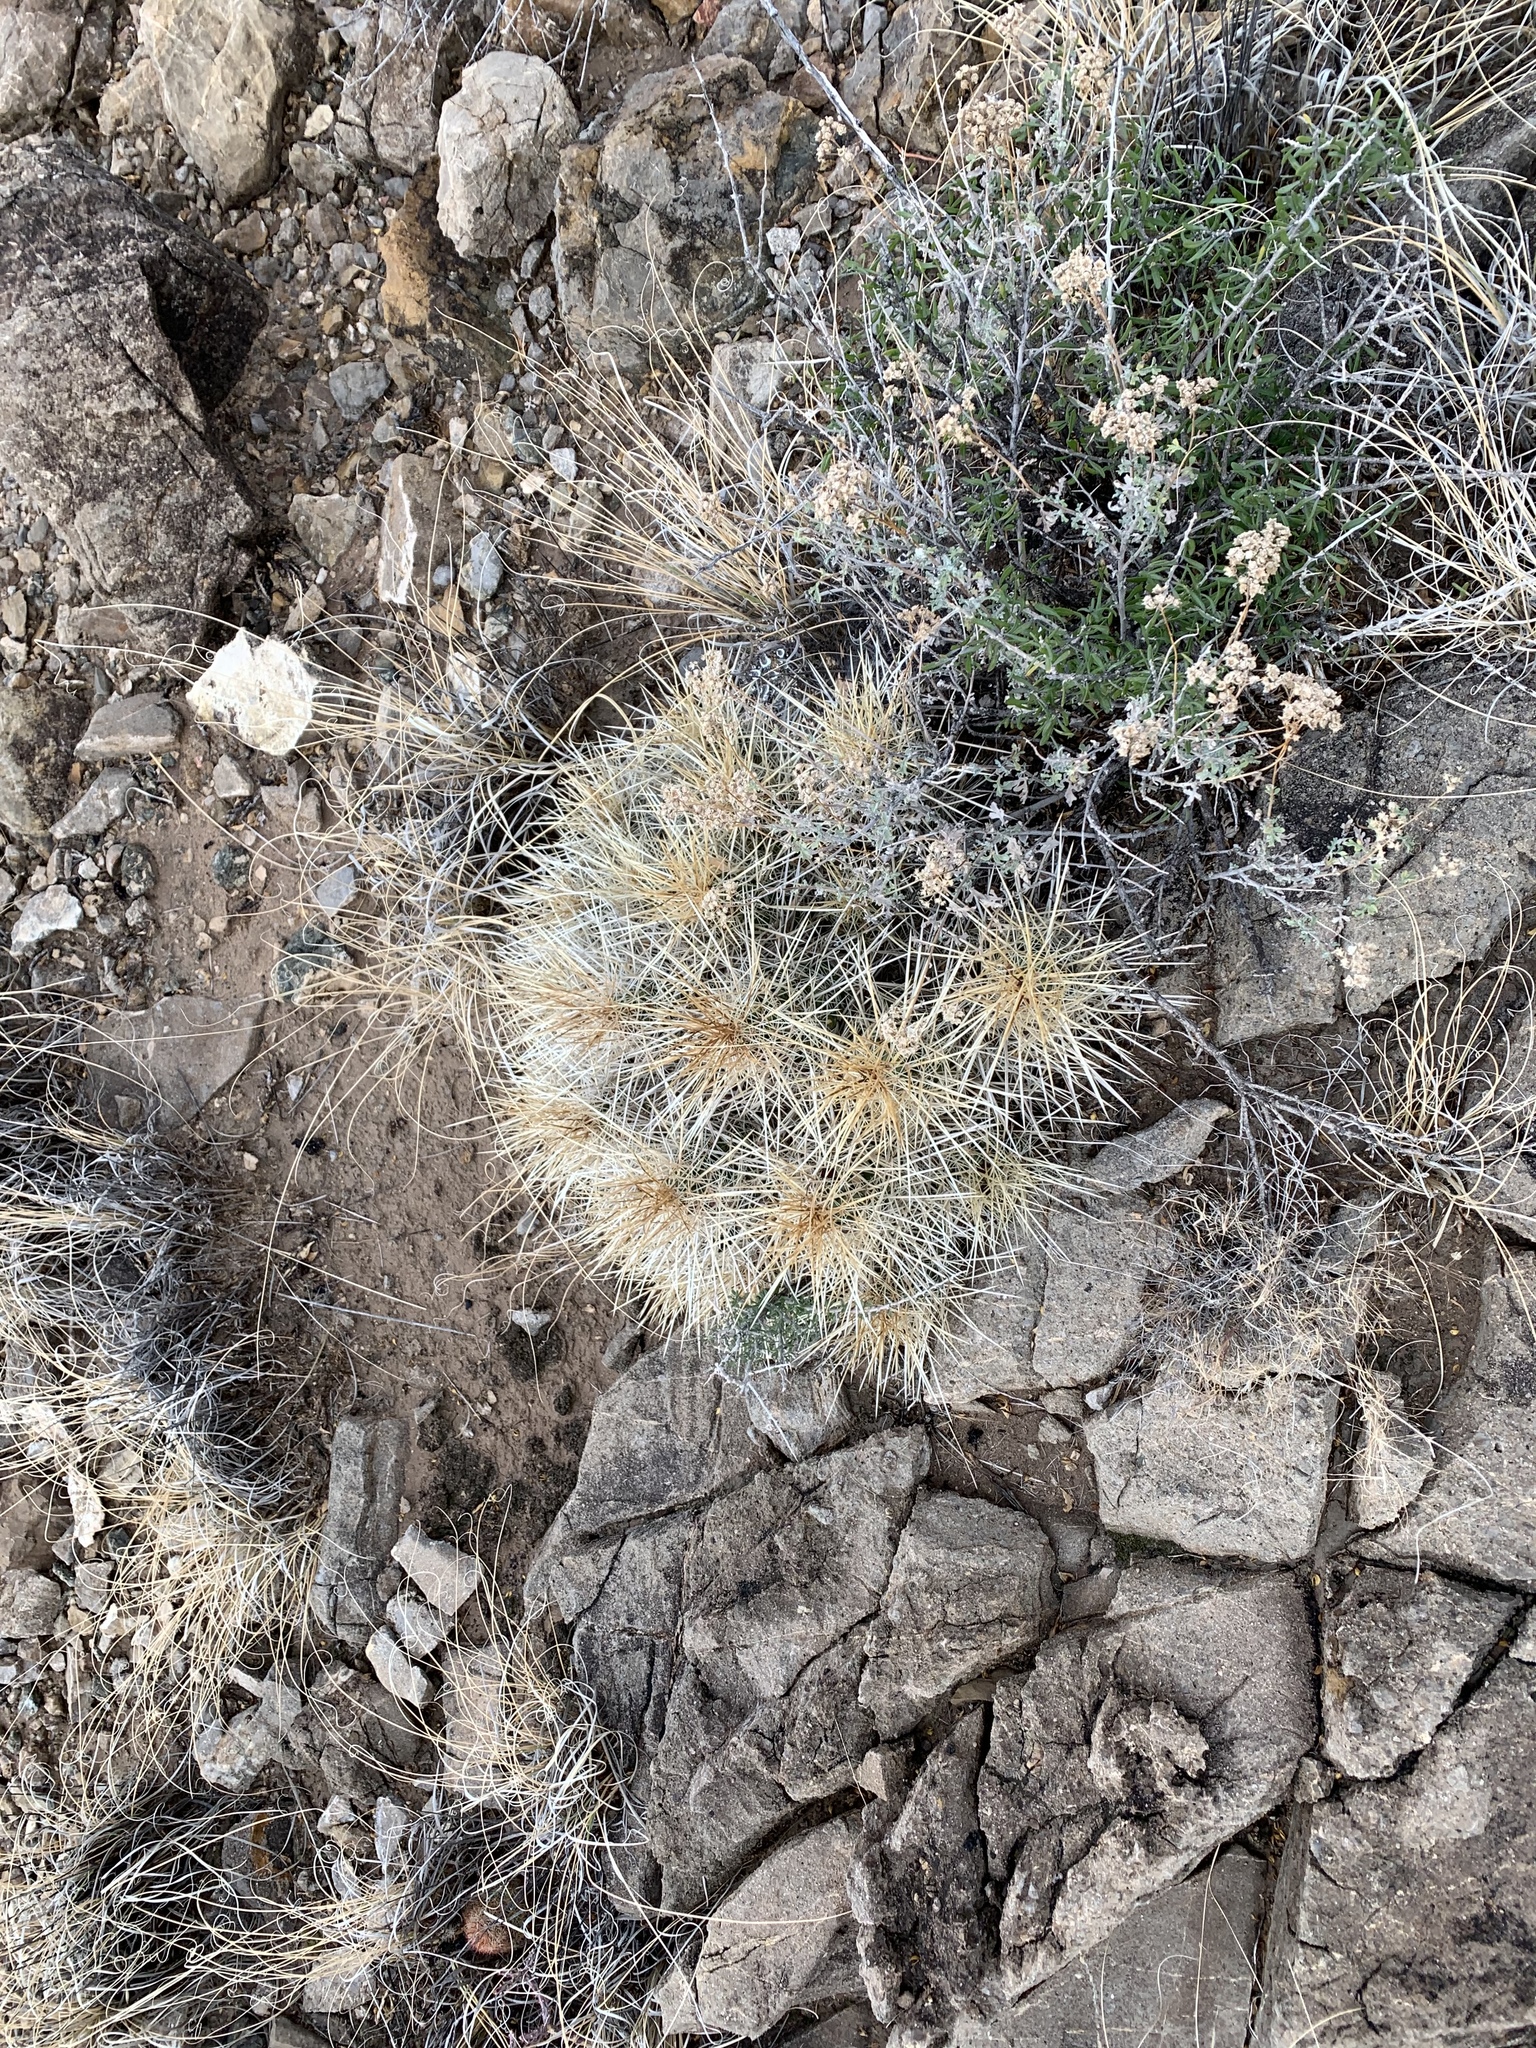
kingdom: Plantae
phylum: Tracheophyta
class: Magnoliopsida
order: Caryophyllales
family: Cactaceae
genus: Echinocereus
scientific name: Echinocereus stramineus
